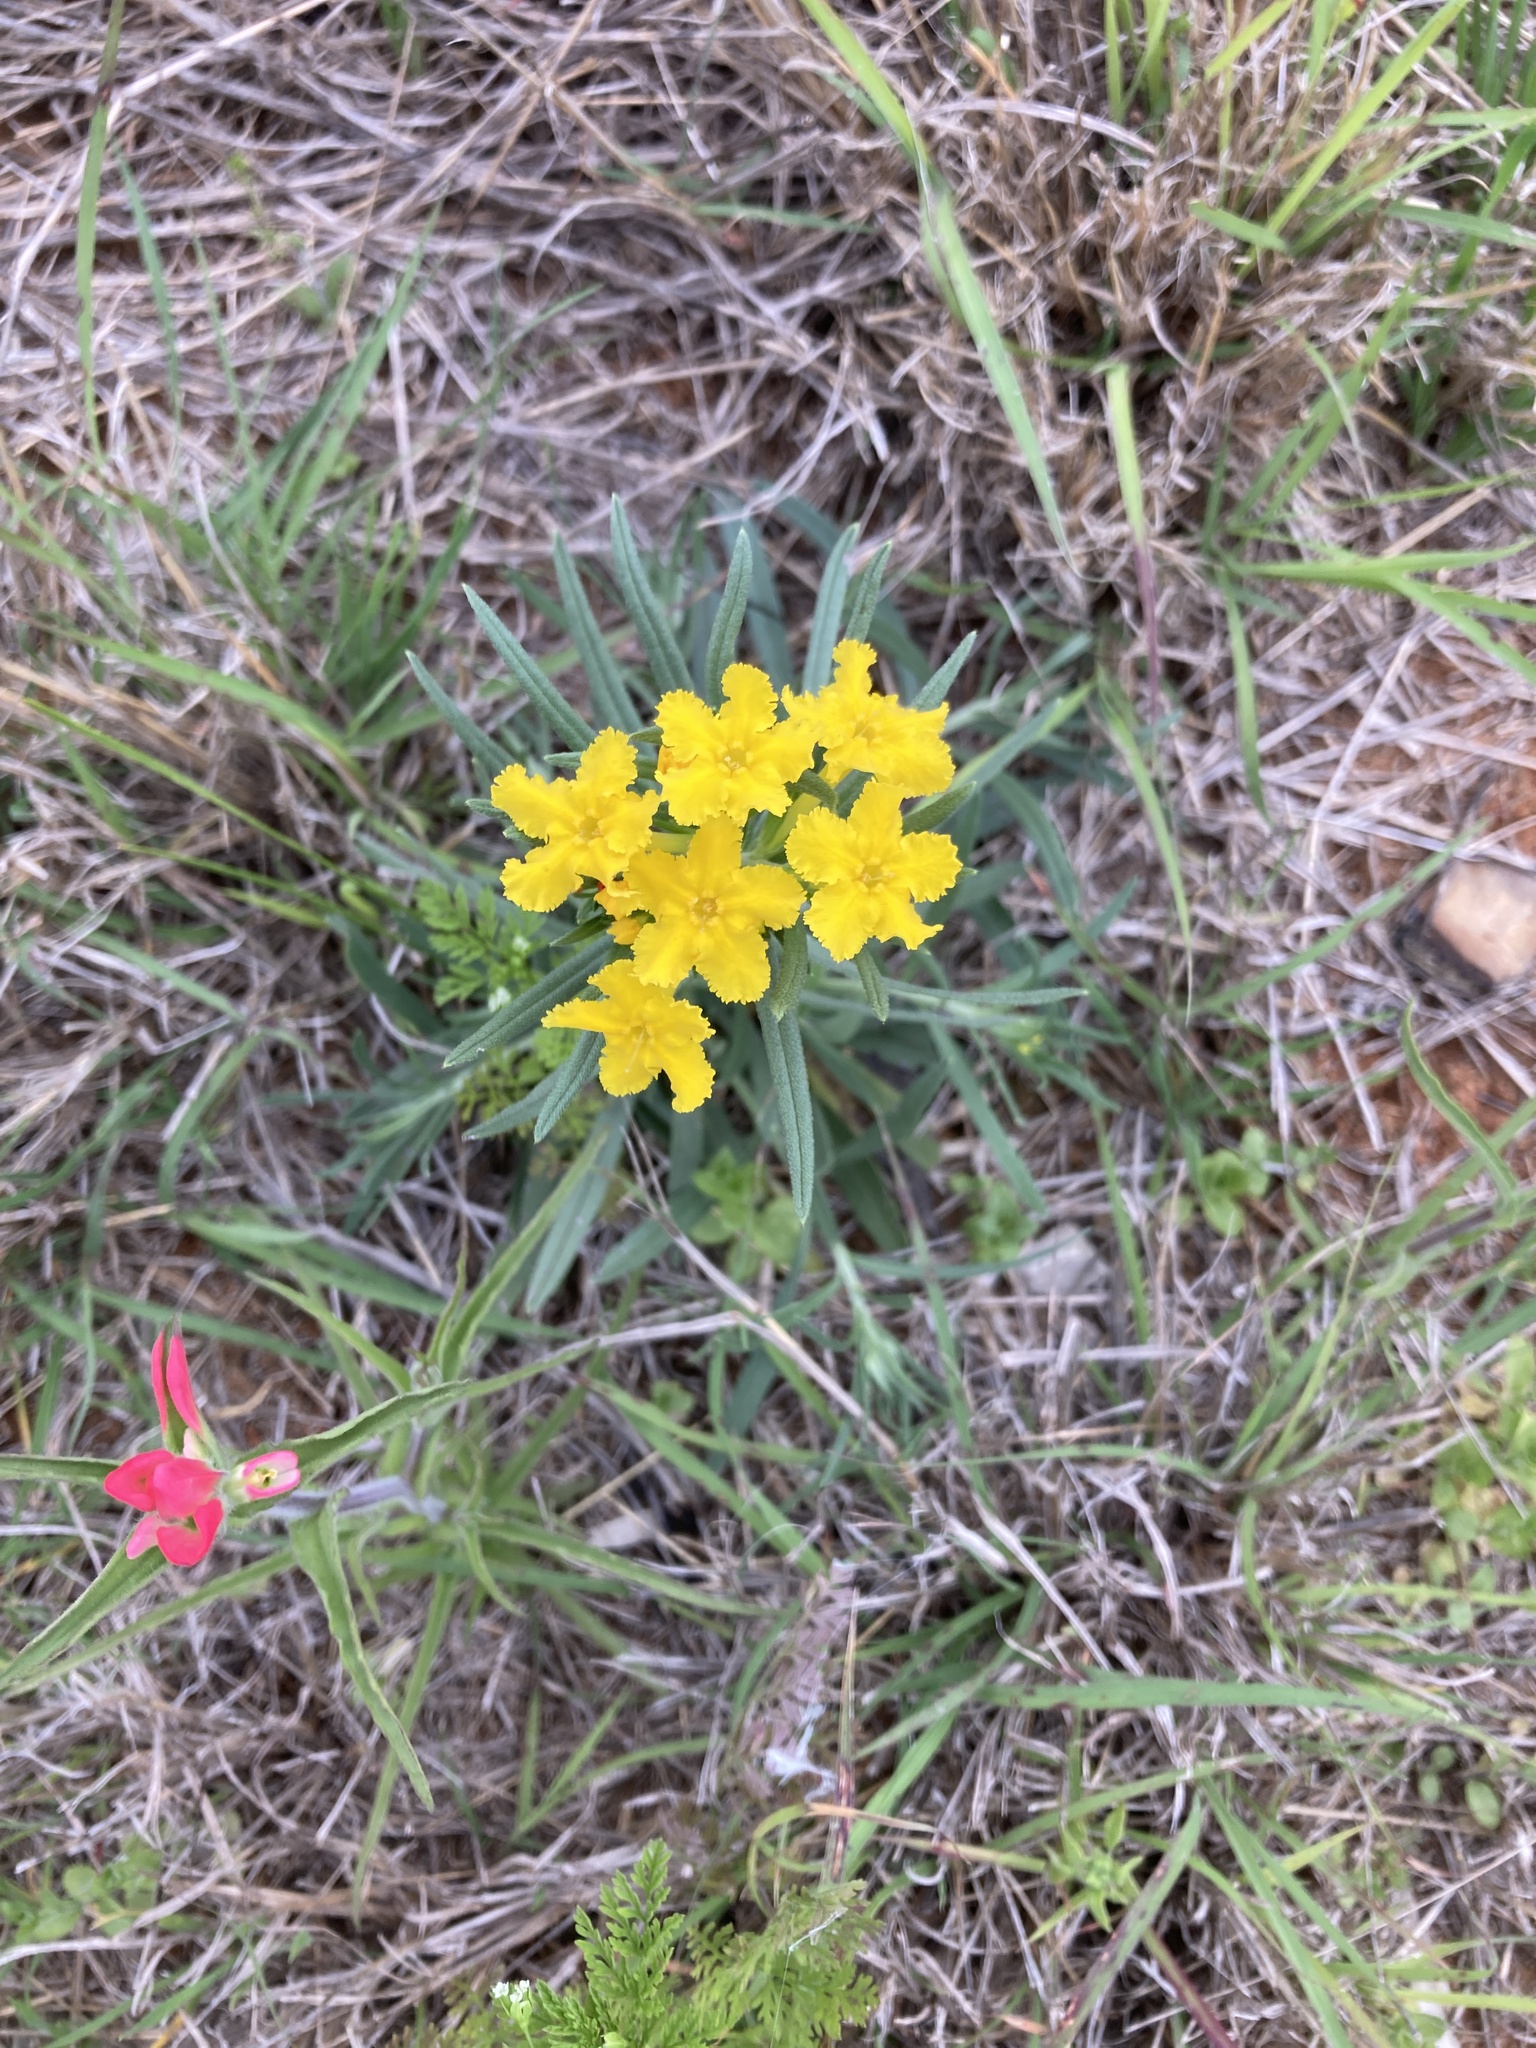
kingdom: Plantae
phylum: Tracheophyta
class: Magnoliopsida
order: Boraginales
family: Boraginaceae
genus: Lithospermum
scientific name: Lithospermum incisum
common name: Fringed gromwell
